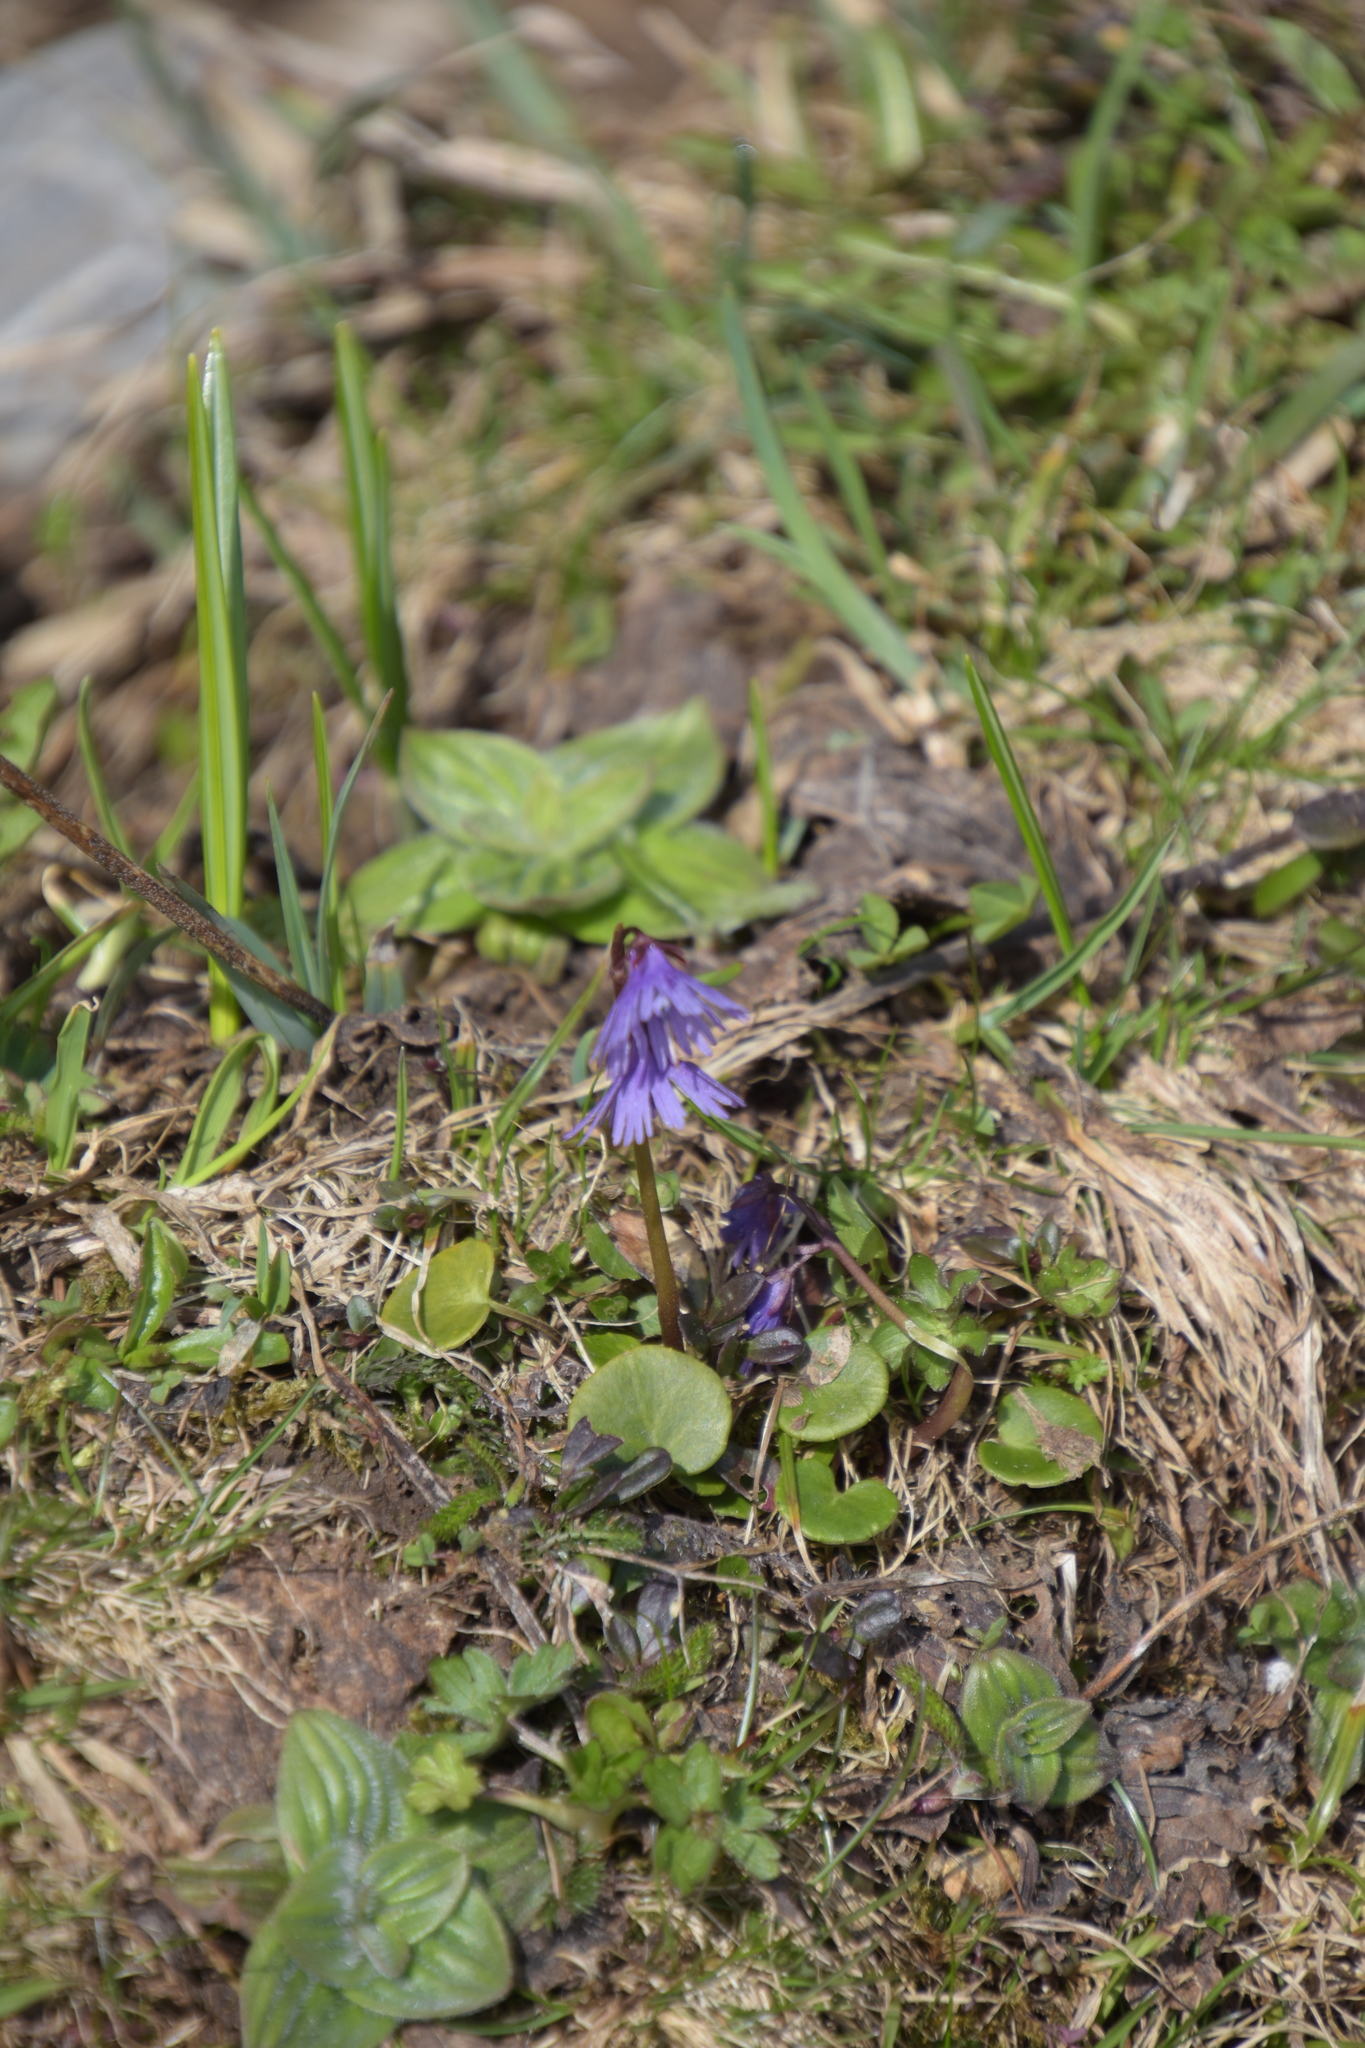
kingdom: Plantae
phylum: Tracheophyta
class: Magnoliopsida
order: Ericales
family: Primulaceae
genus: Soldanella
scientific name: Soldanella alpina
